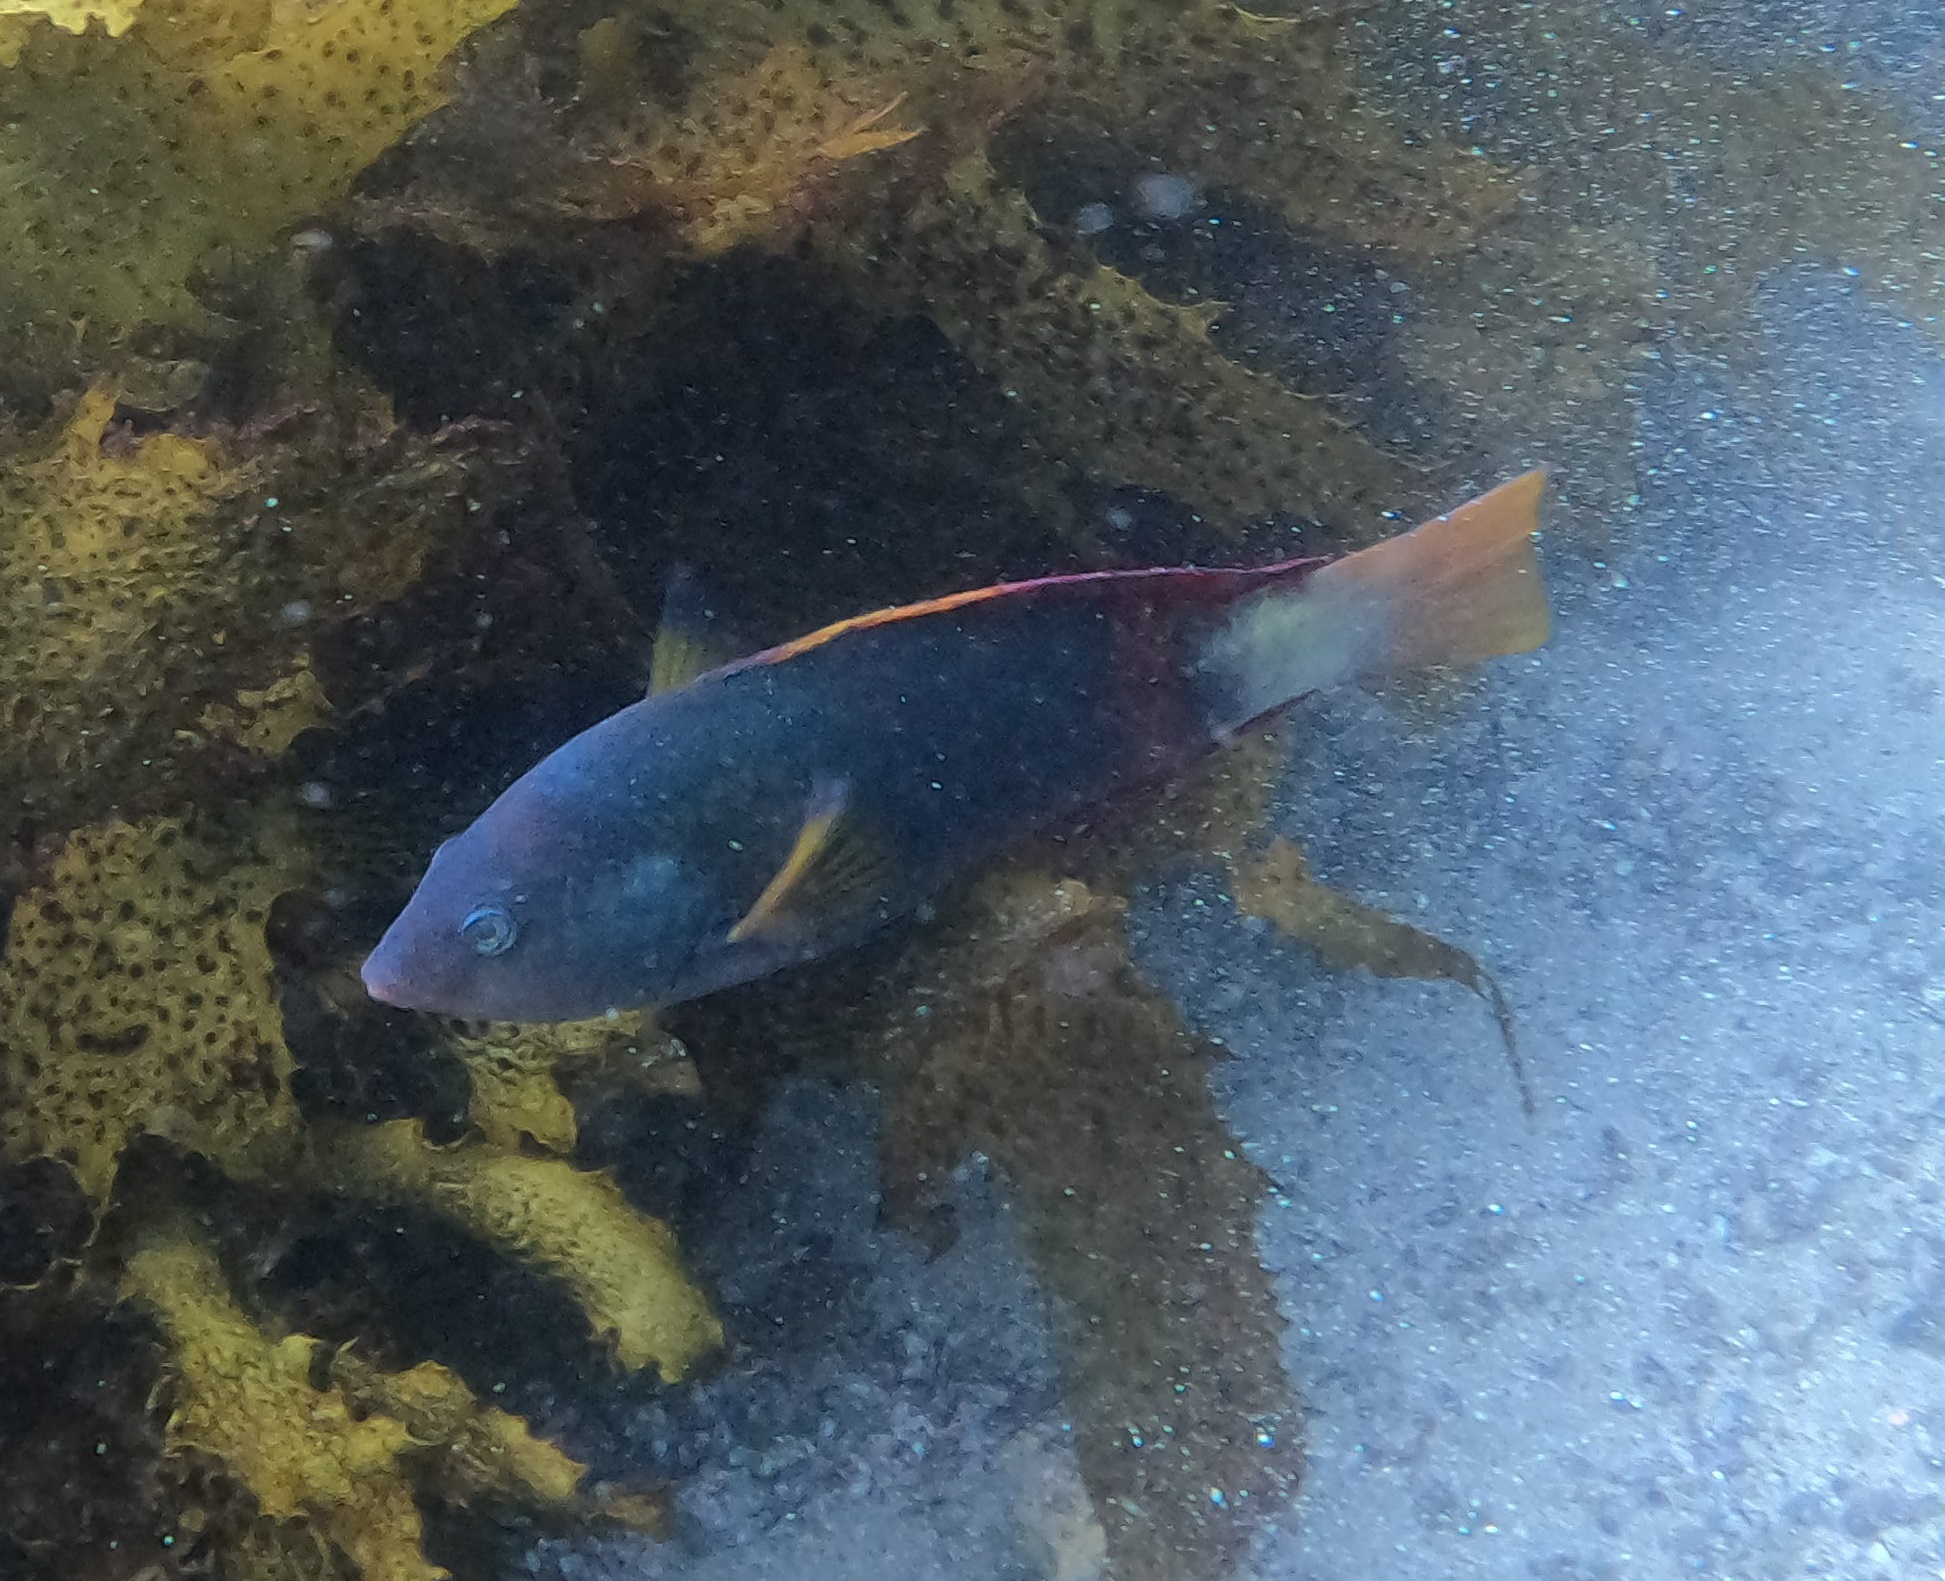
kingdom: Animalia
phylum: Chordata
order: Perciformes
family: Labridae
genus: Notolabrus
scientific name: Notolabrus gymnogenis
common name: Crimson banded wrasse
